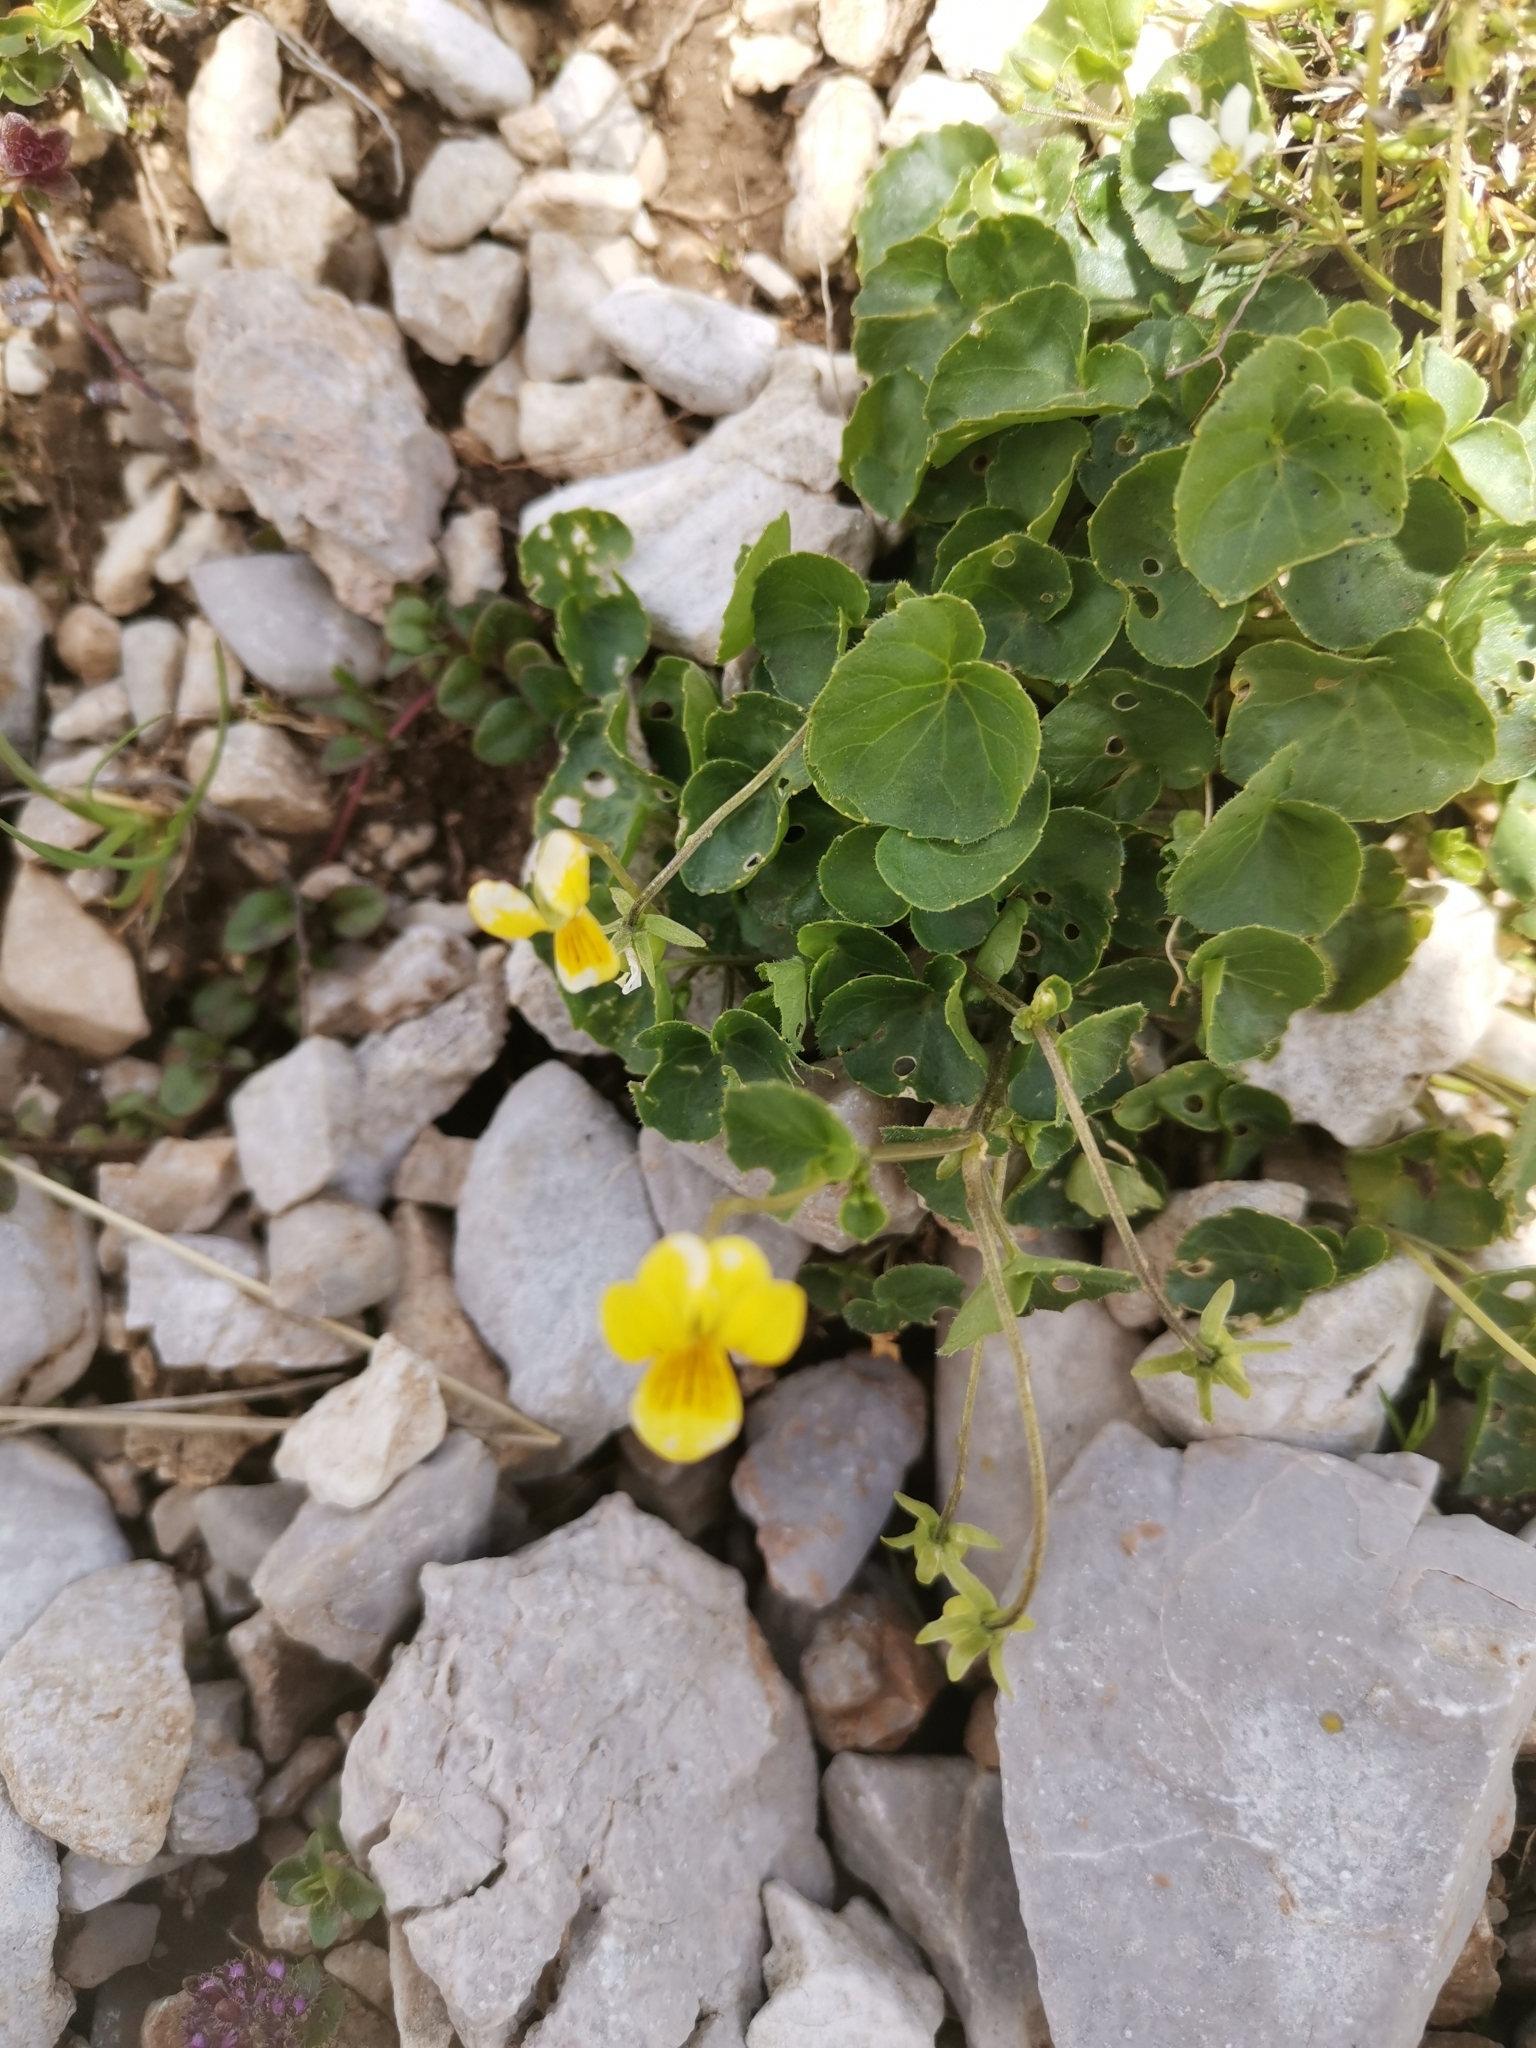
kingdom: Plantae
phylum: Tracheophyta
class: Magnoliopsida
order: Malpighiales
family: Violaceae
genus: Viola
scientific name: Viola biflora
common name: Alpine yellow violet
